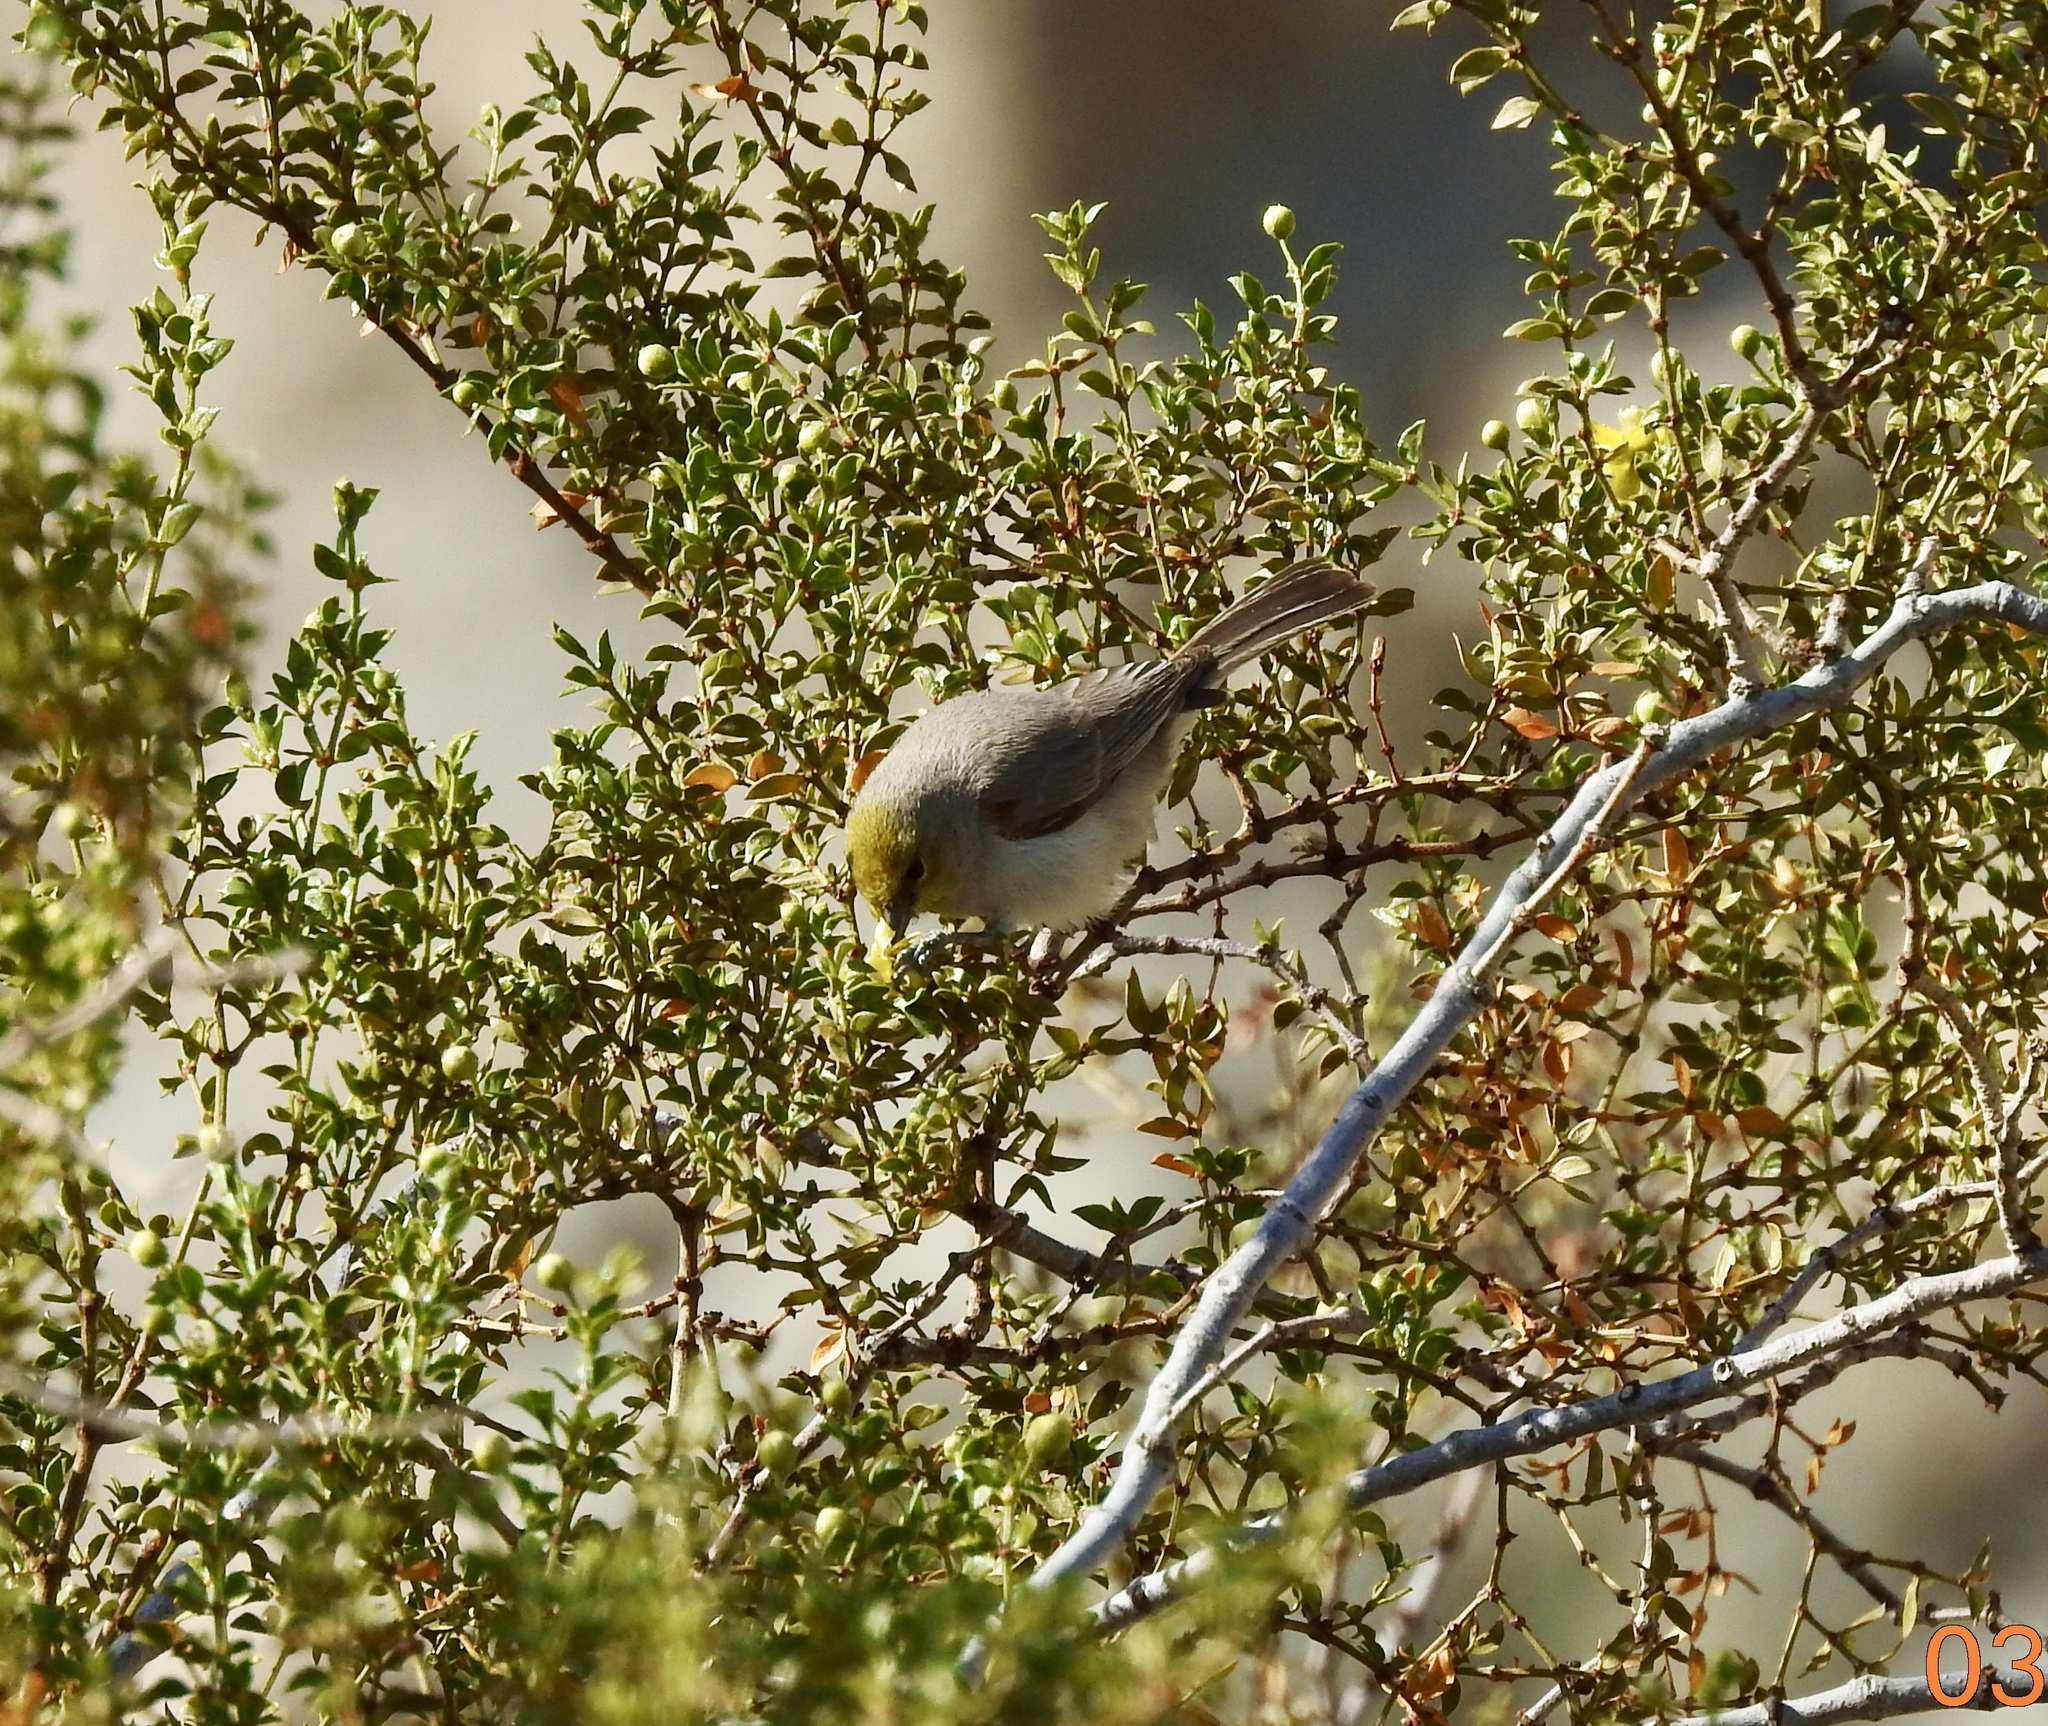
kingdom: Animalia
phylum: Chordata
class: Aves
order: Passeriformes
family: Remizidae
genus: Auriparus
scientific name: Auriparus flaviceps
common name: Verdin
